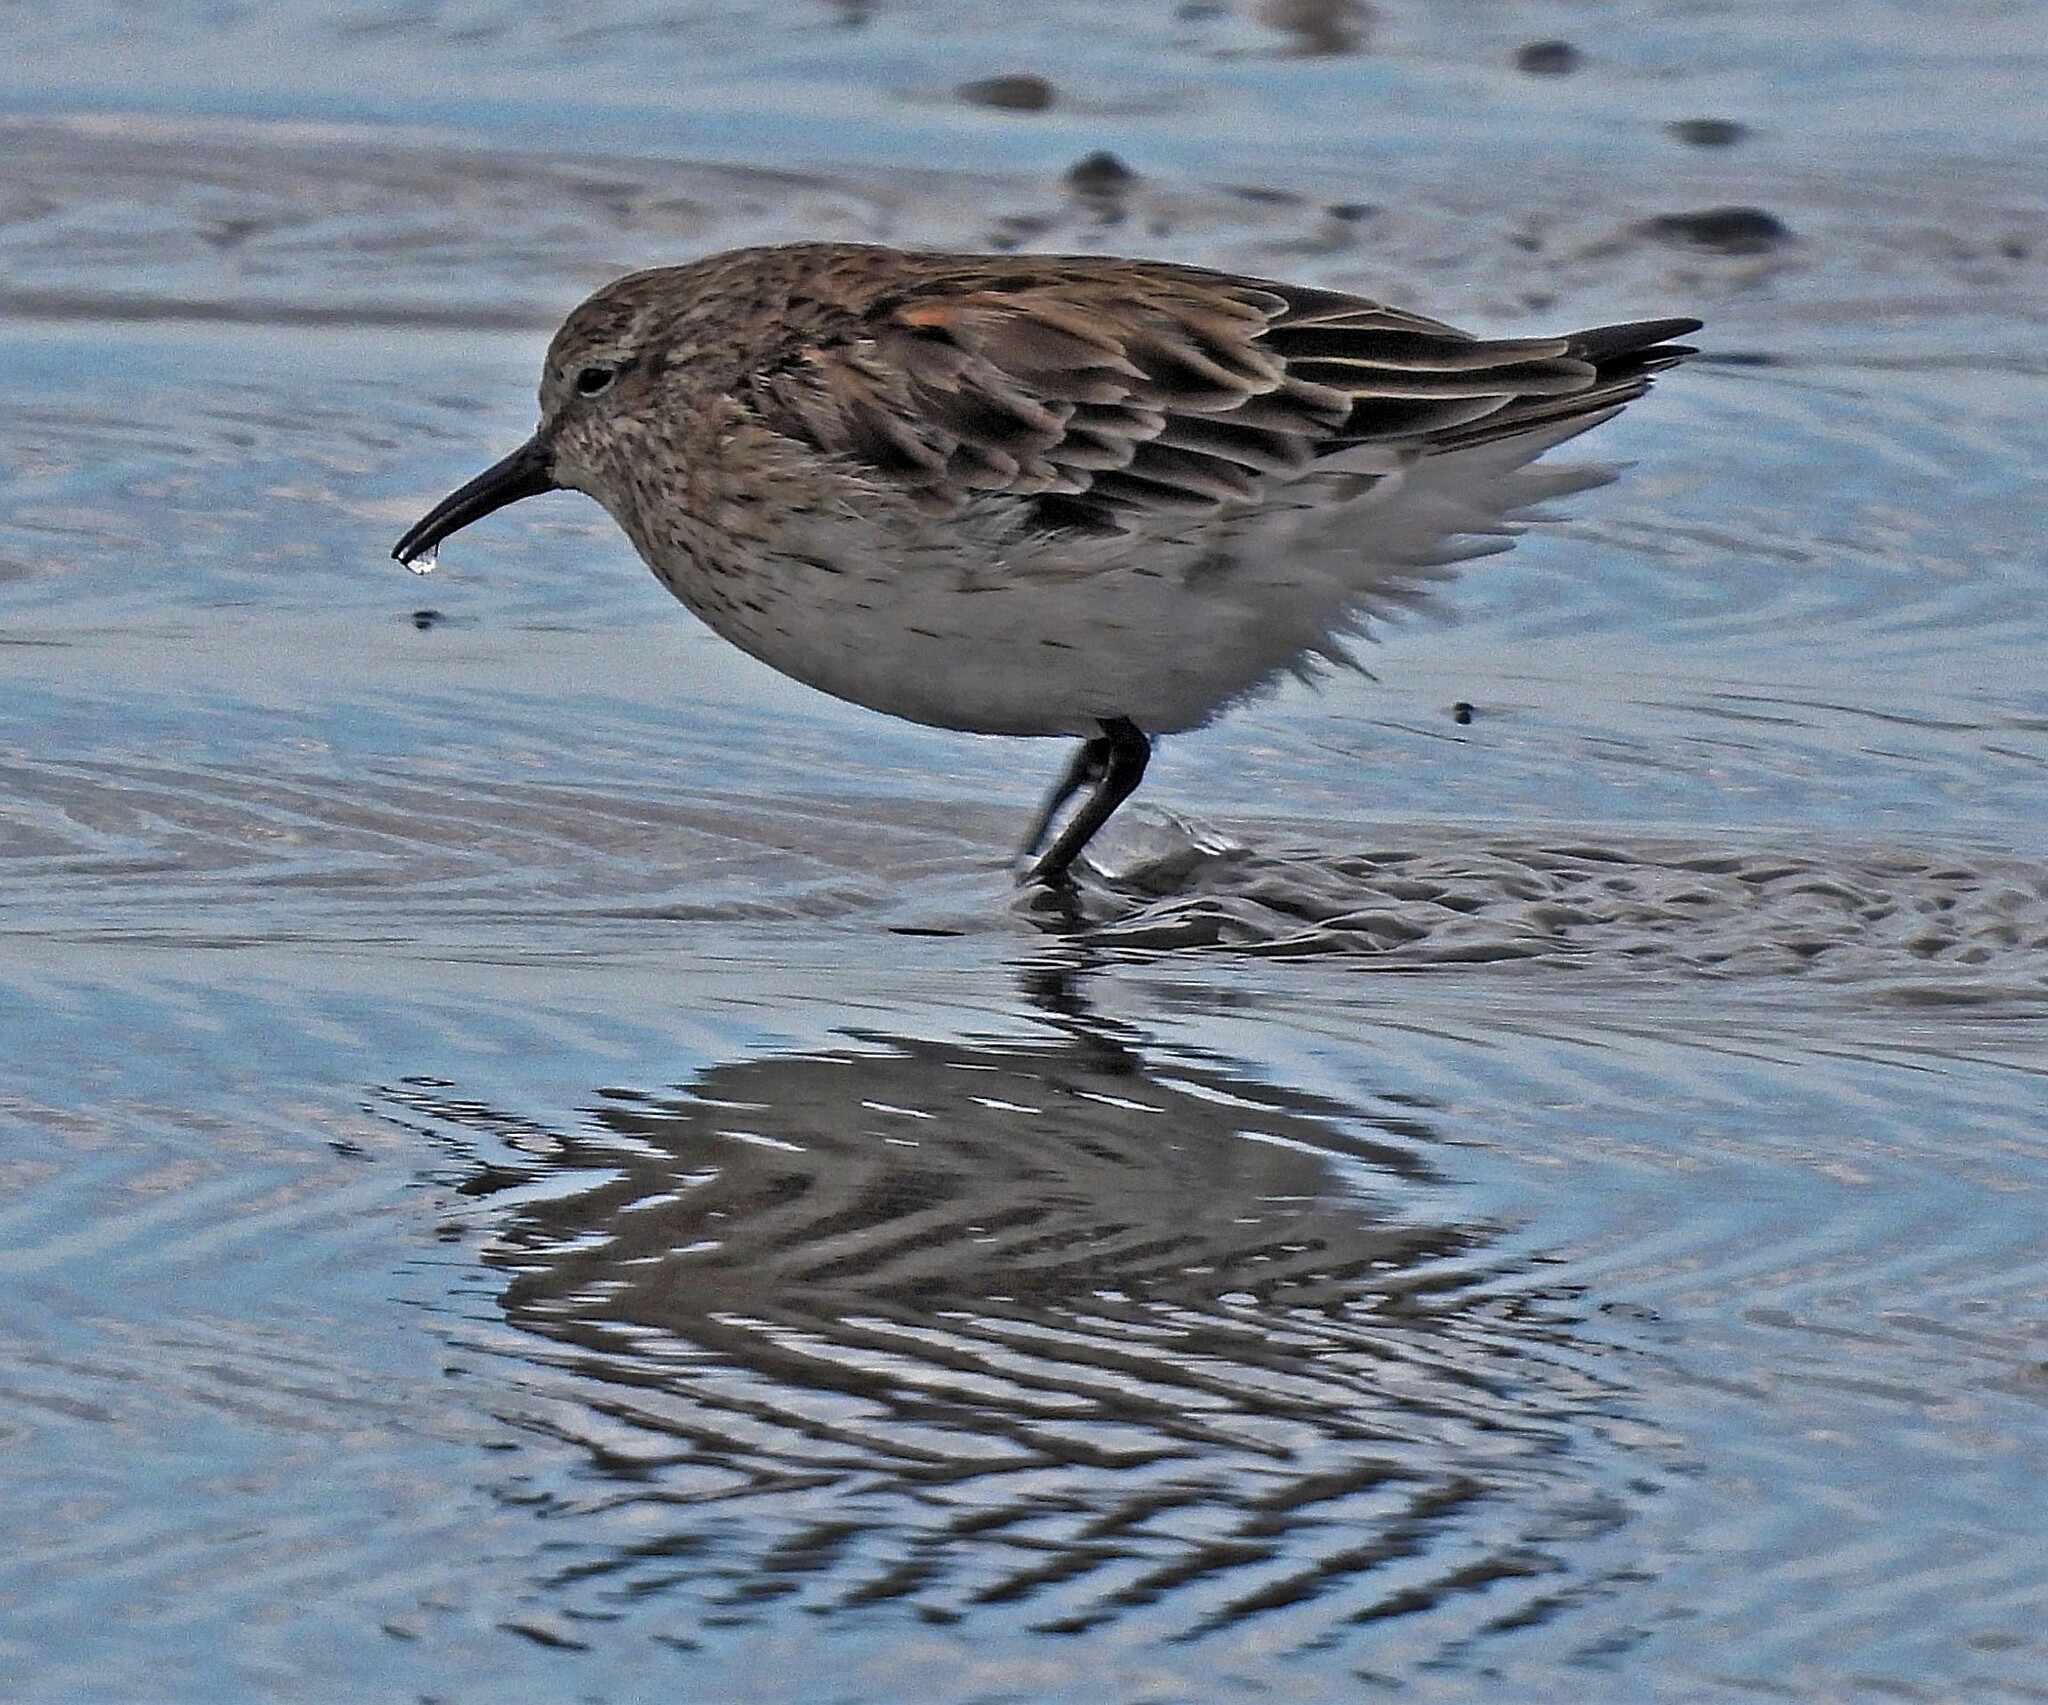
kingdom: Animalia
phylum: Chordata
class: Aves
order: Charadriiformes
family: Scolopacidae
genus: Calidris
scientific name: Calidris fuscicollis
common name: White-rumped sandpiper
